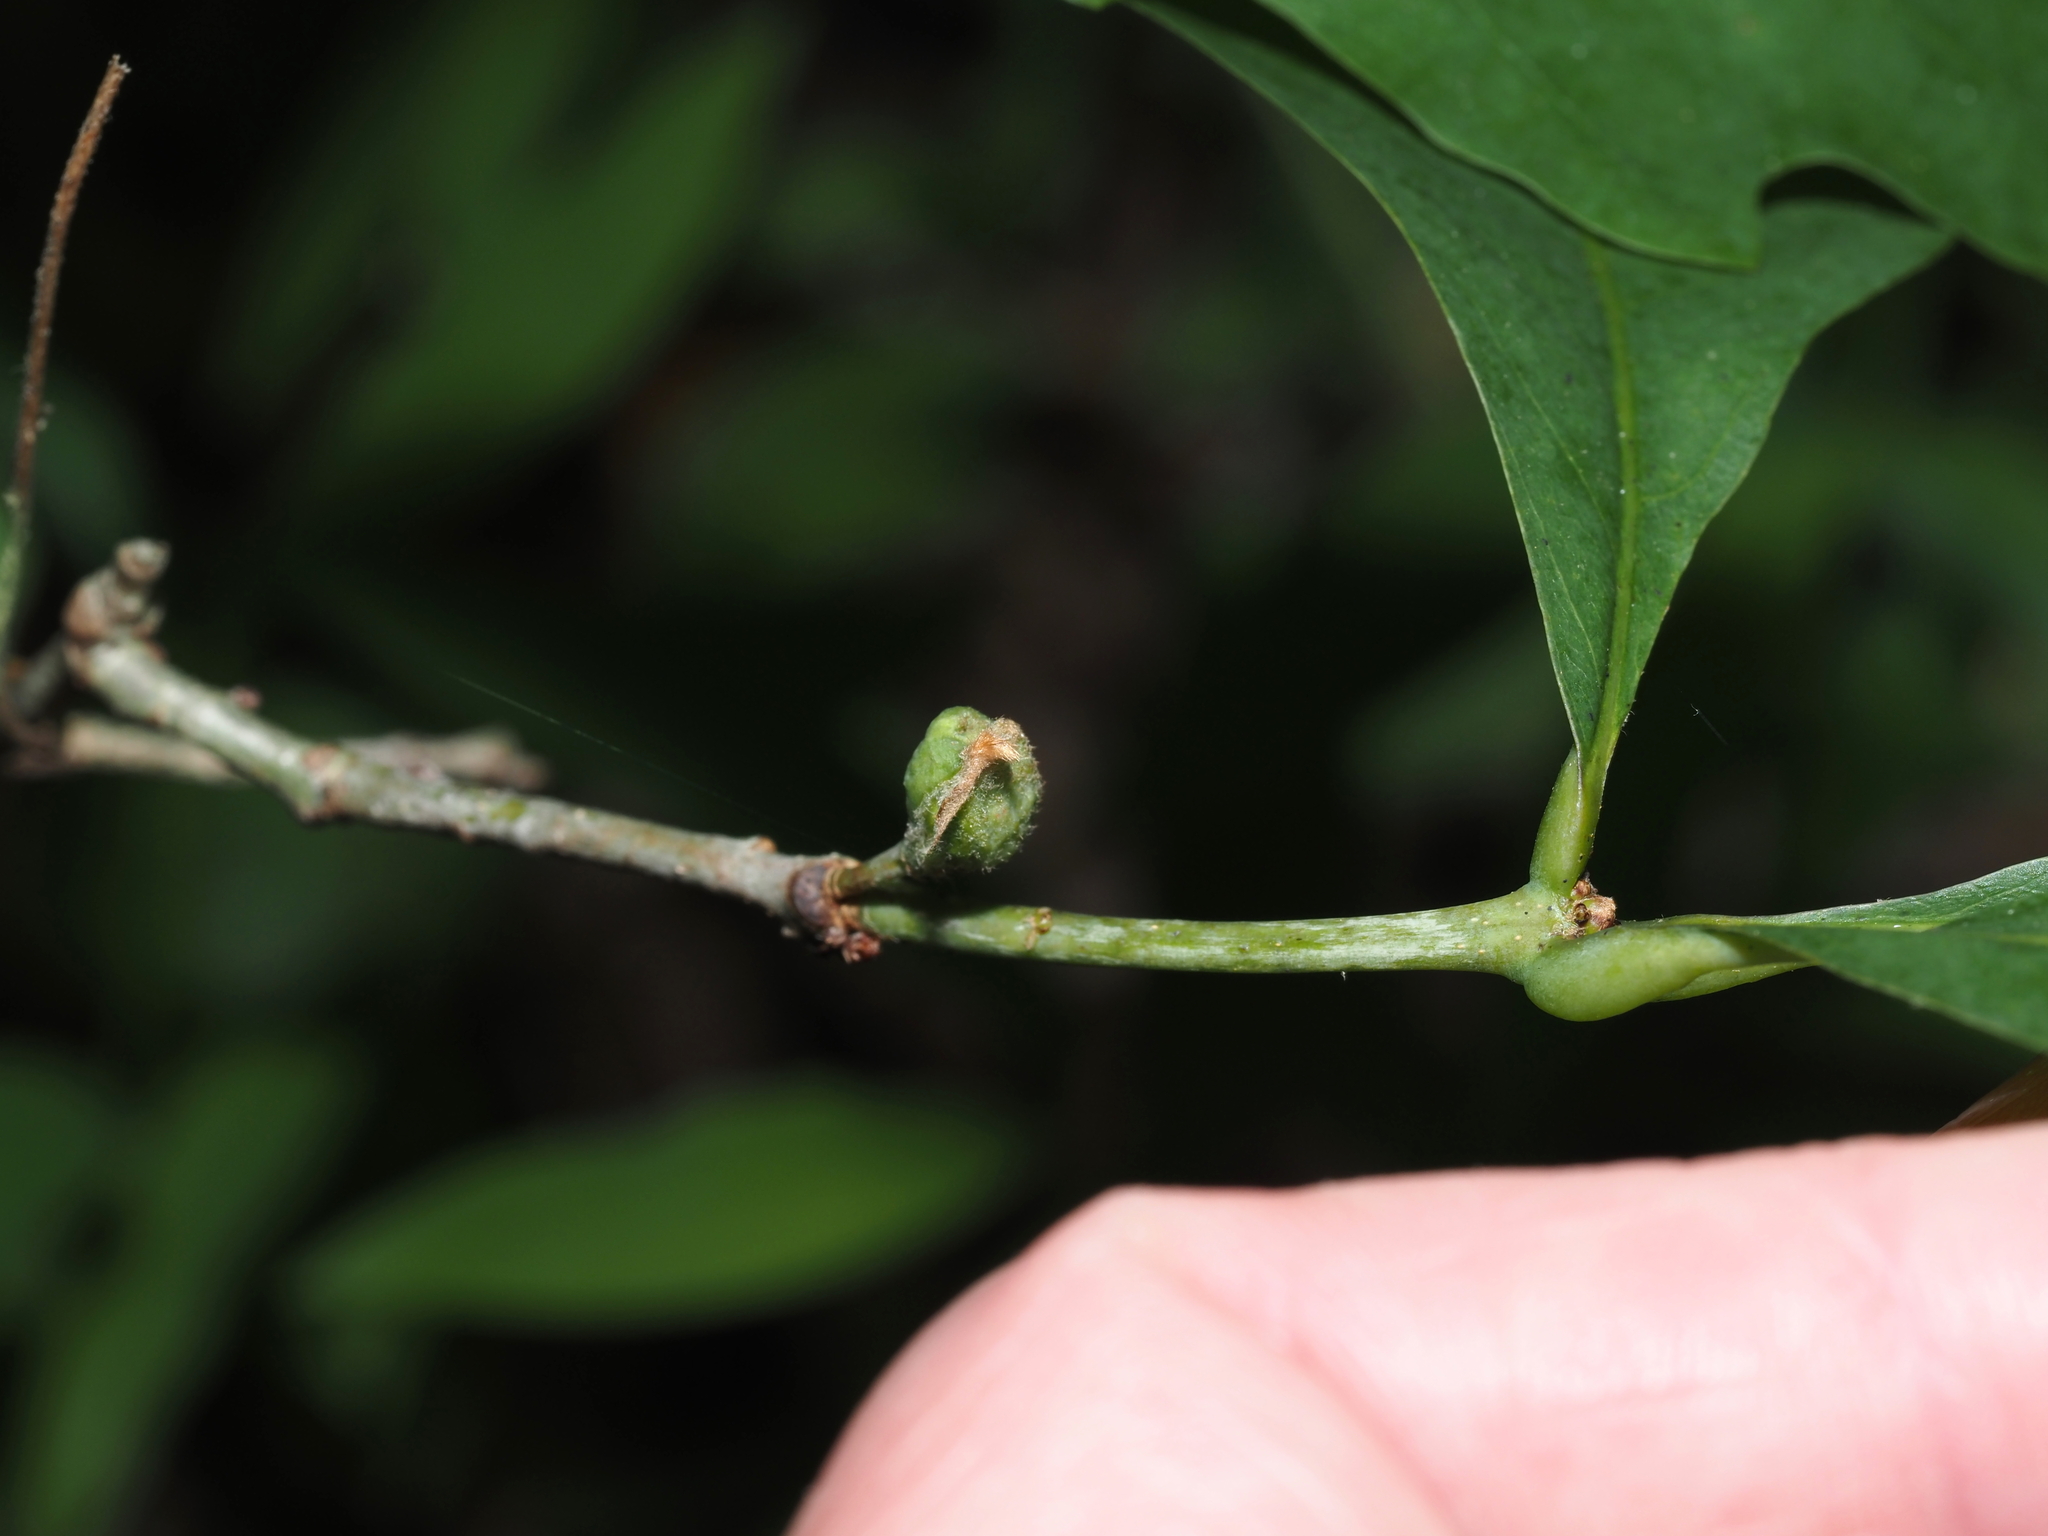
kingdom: Animalia
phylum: Arthropoda
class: Insecta
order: Hymenoptera
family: Cynipidae
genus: Andricus
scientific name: Andricus
